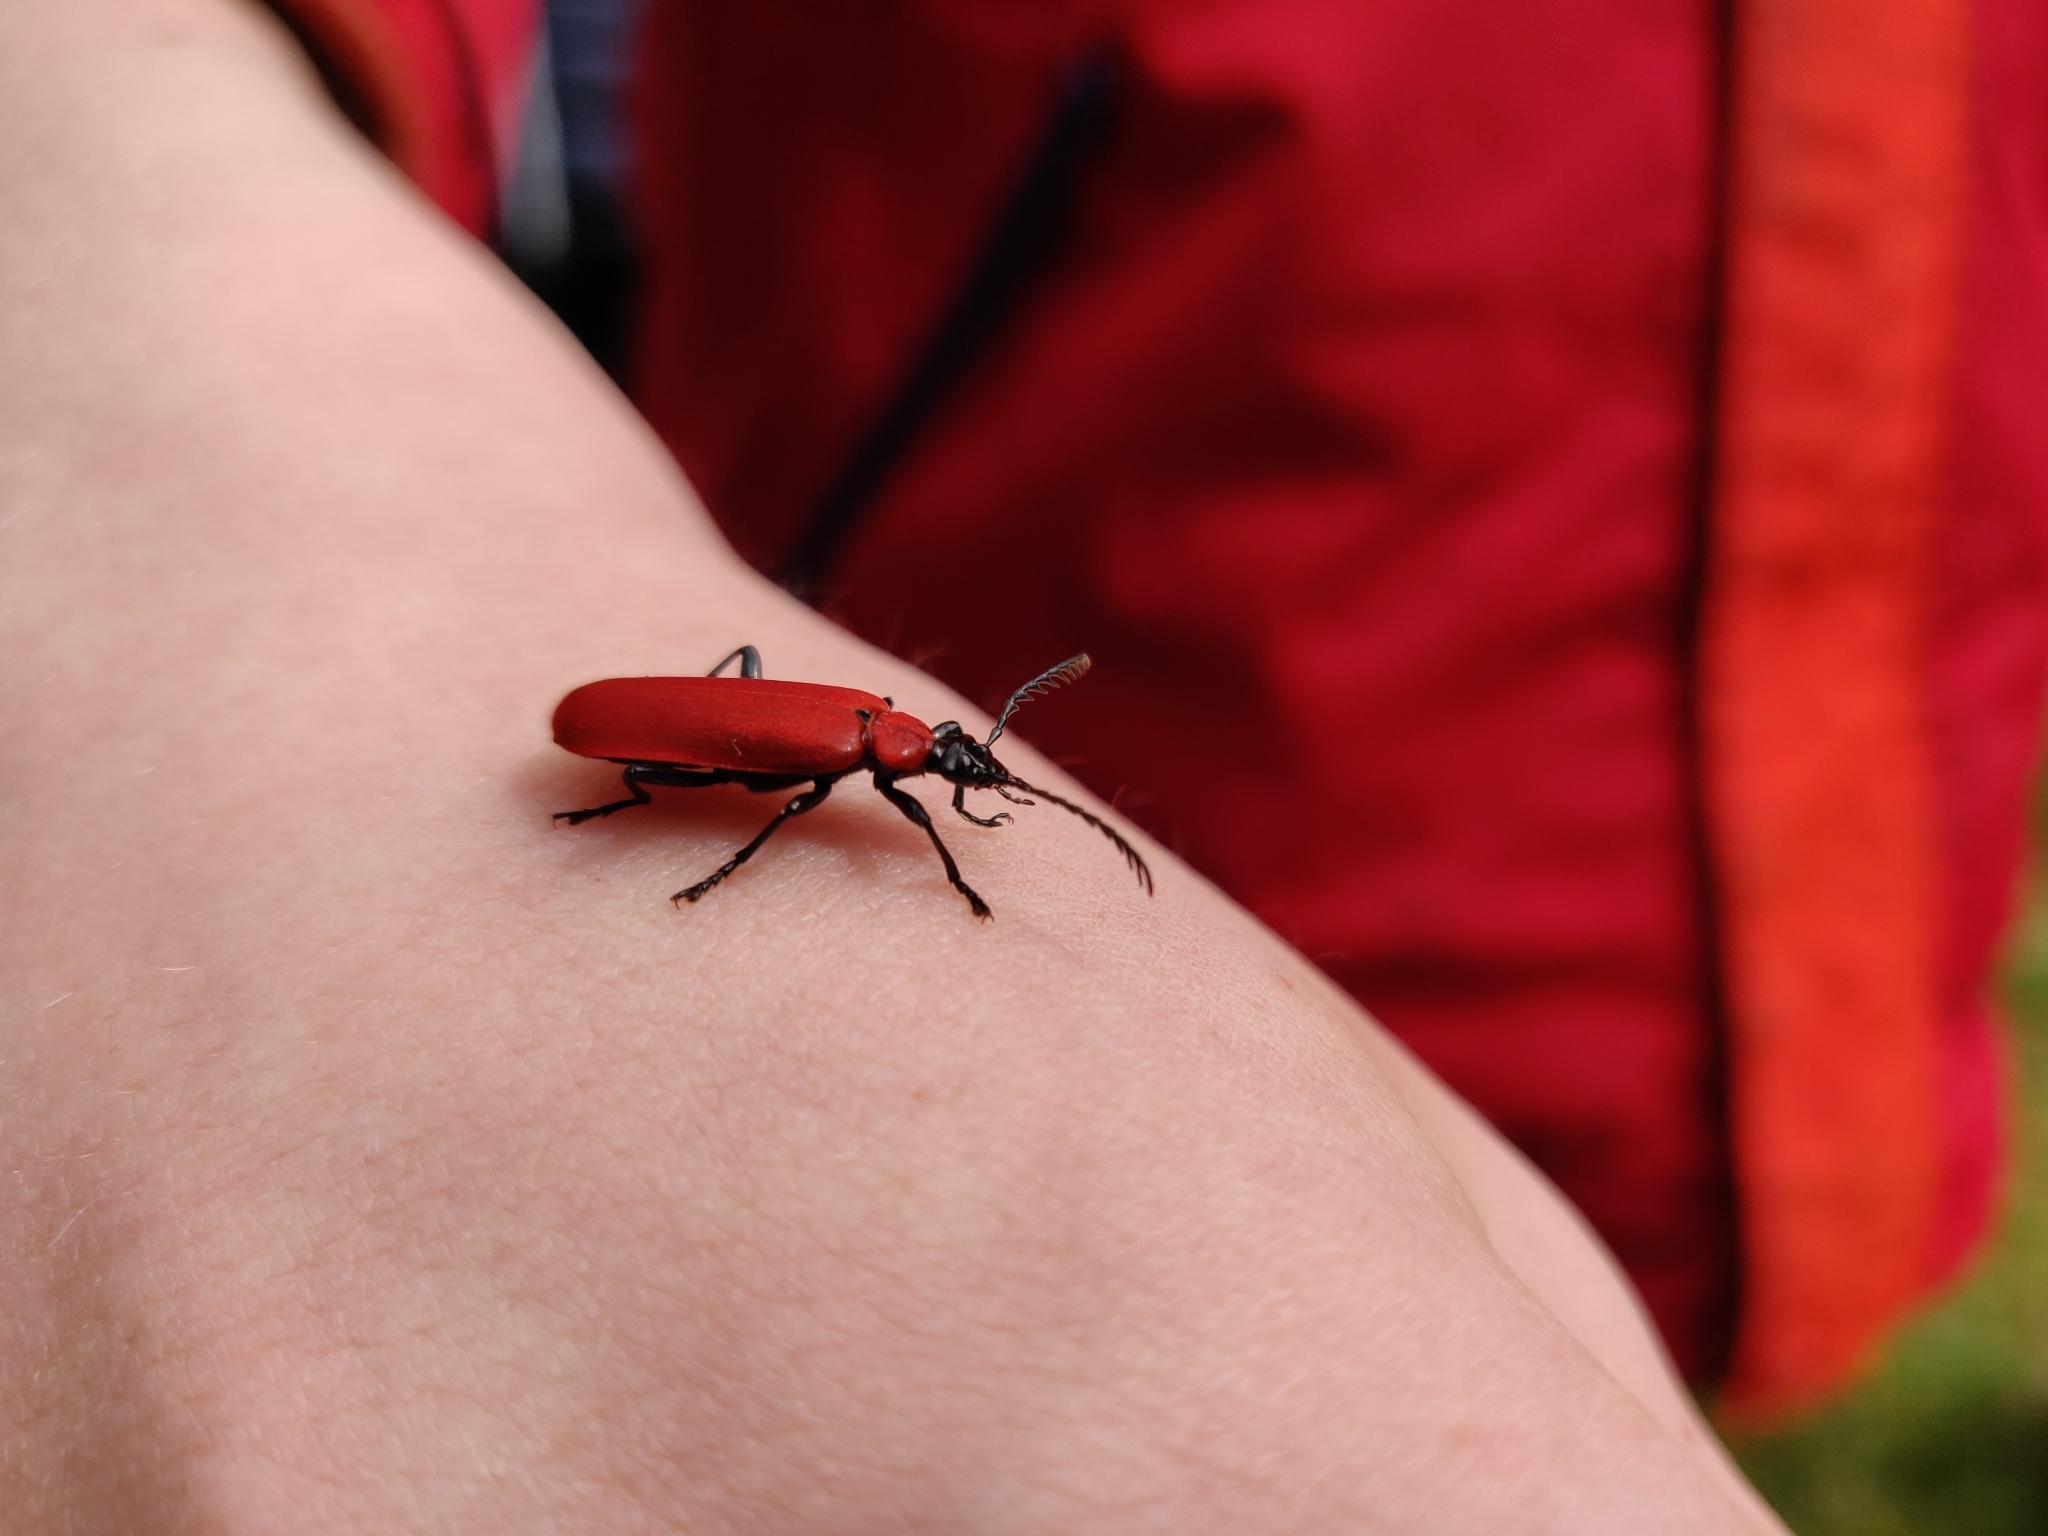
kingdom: Animalia
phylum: Arthropoda
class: Insecta
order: Coleoptera
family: Pyrochroidae
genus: Pyrochroa
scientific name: Pyrochroa coccinea
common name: Black-headed cardinal beetle
